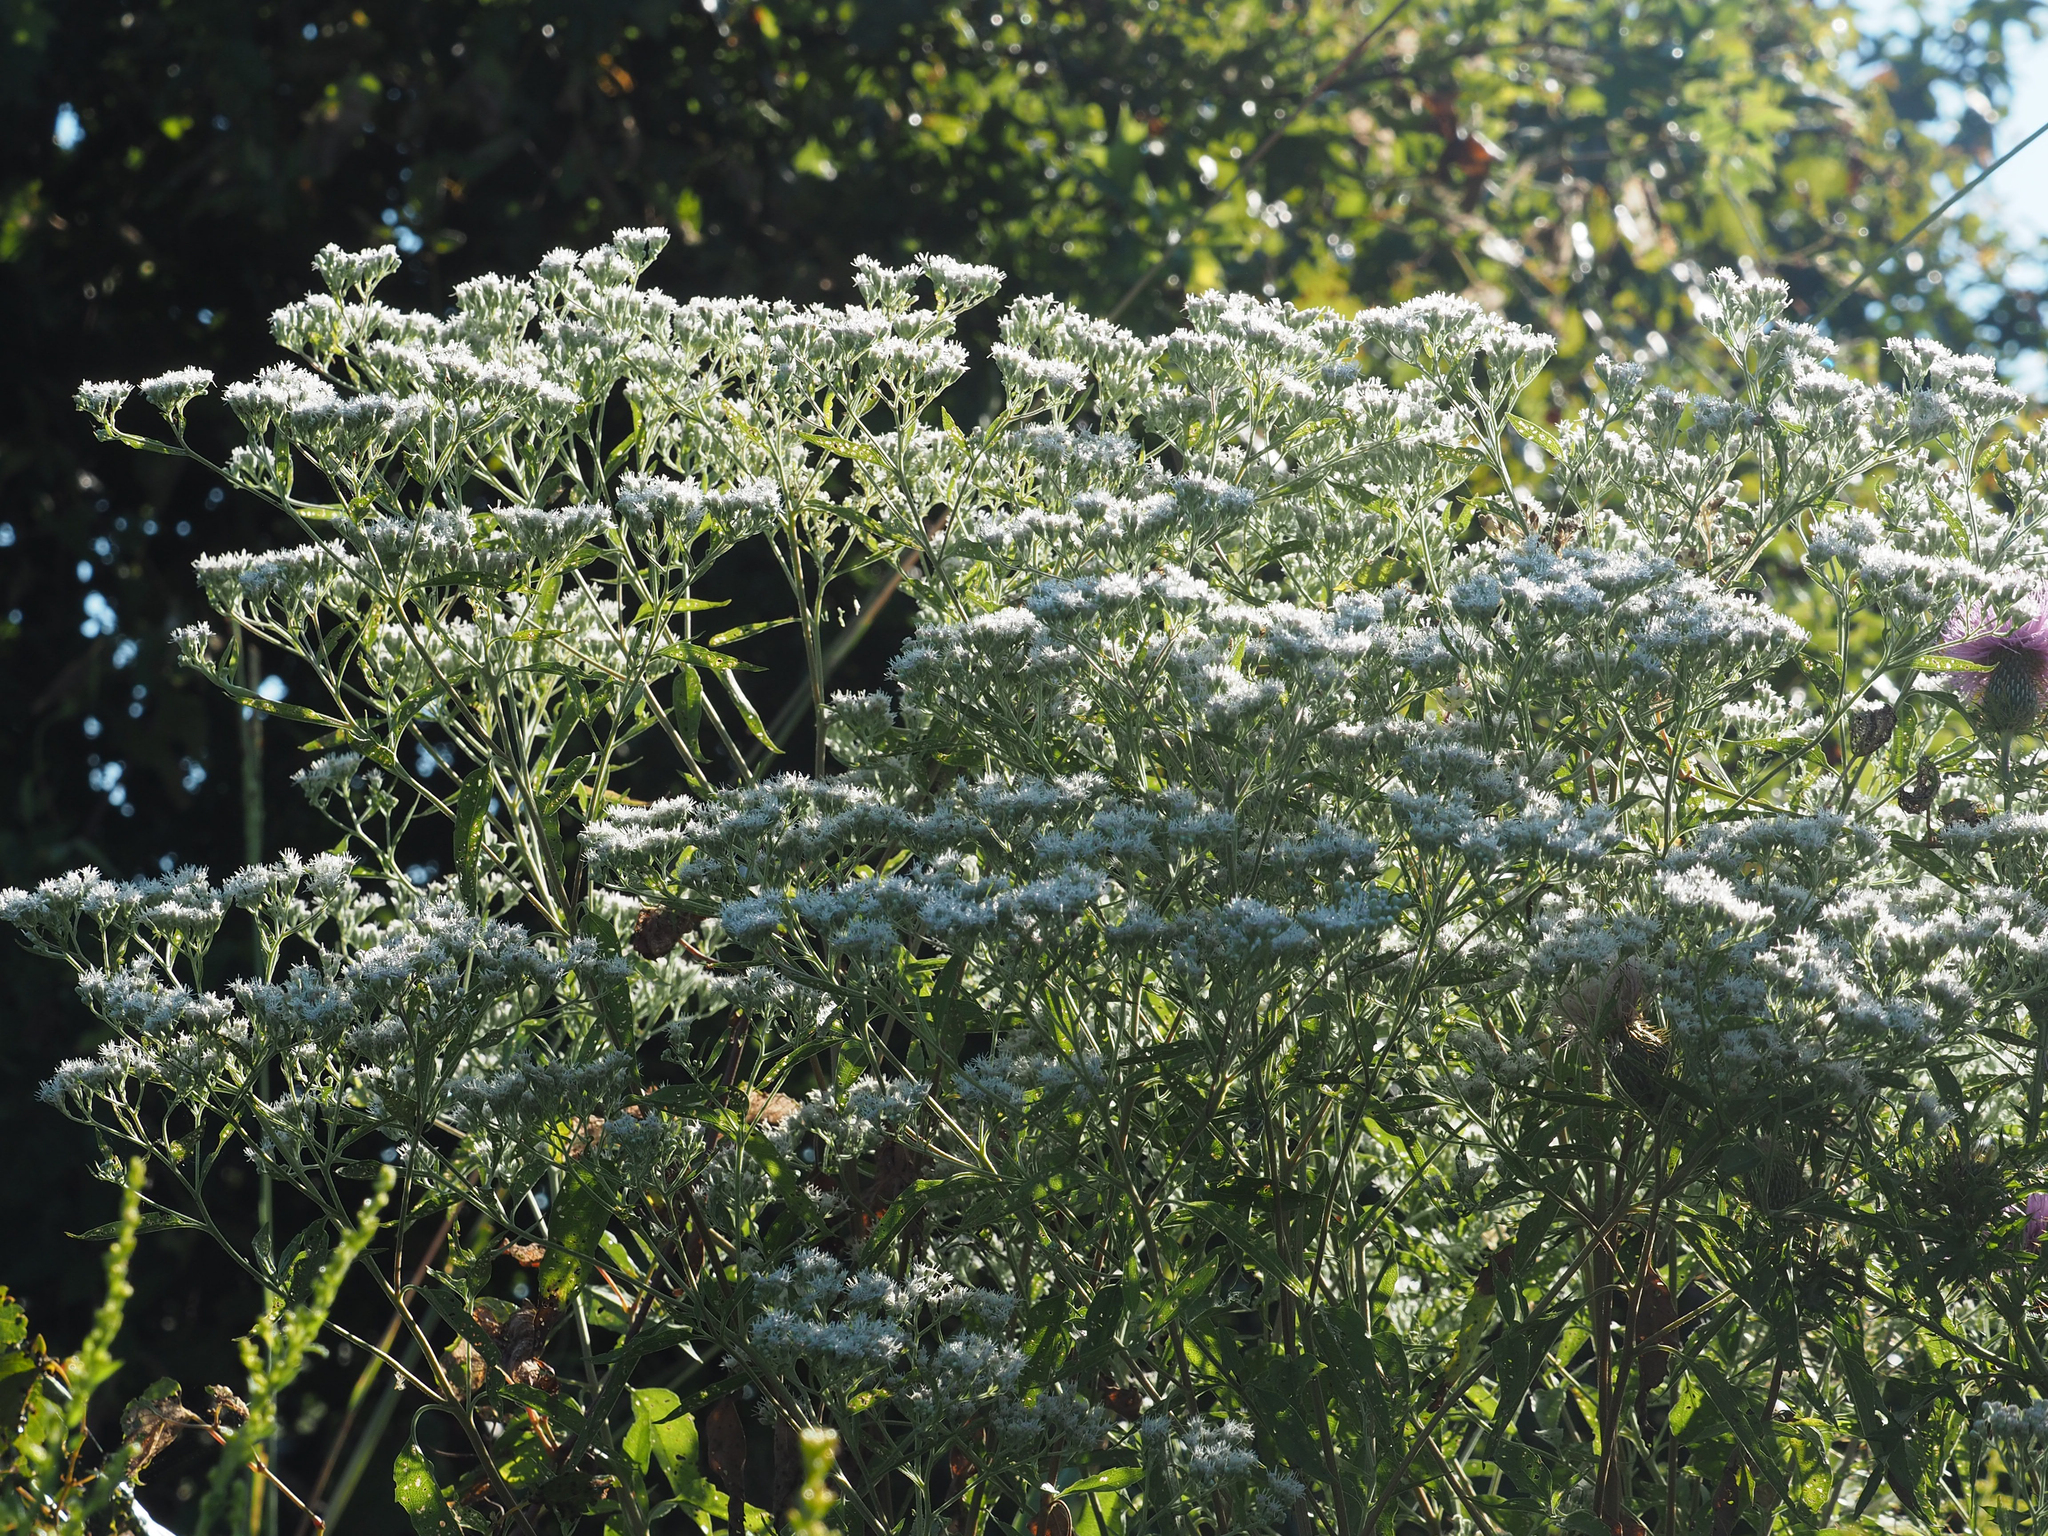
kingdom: Plantae
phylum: Tracheophyta
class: Magnoliopsida
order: Asterales
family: Asteraceae
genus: Eupatorium
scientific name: Eupatorium serotinum
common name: Late boneset
